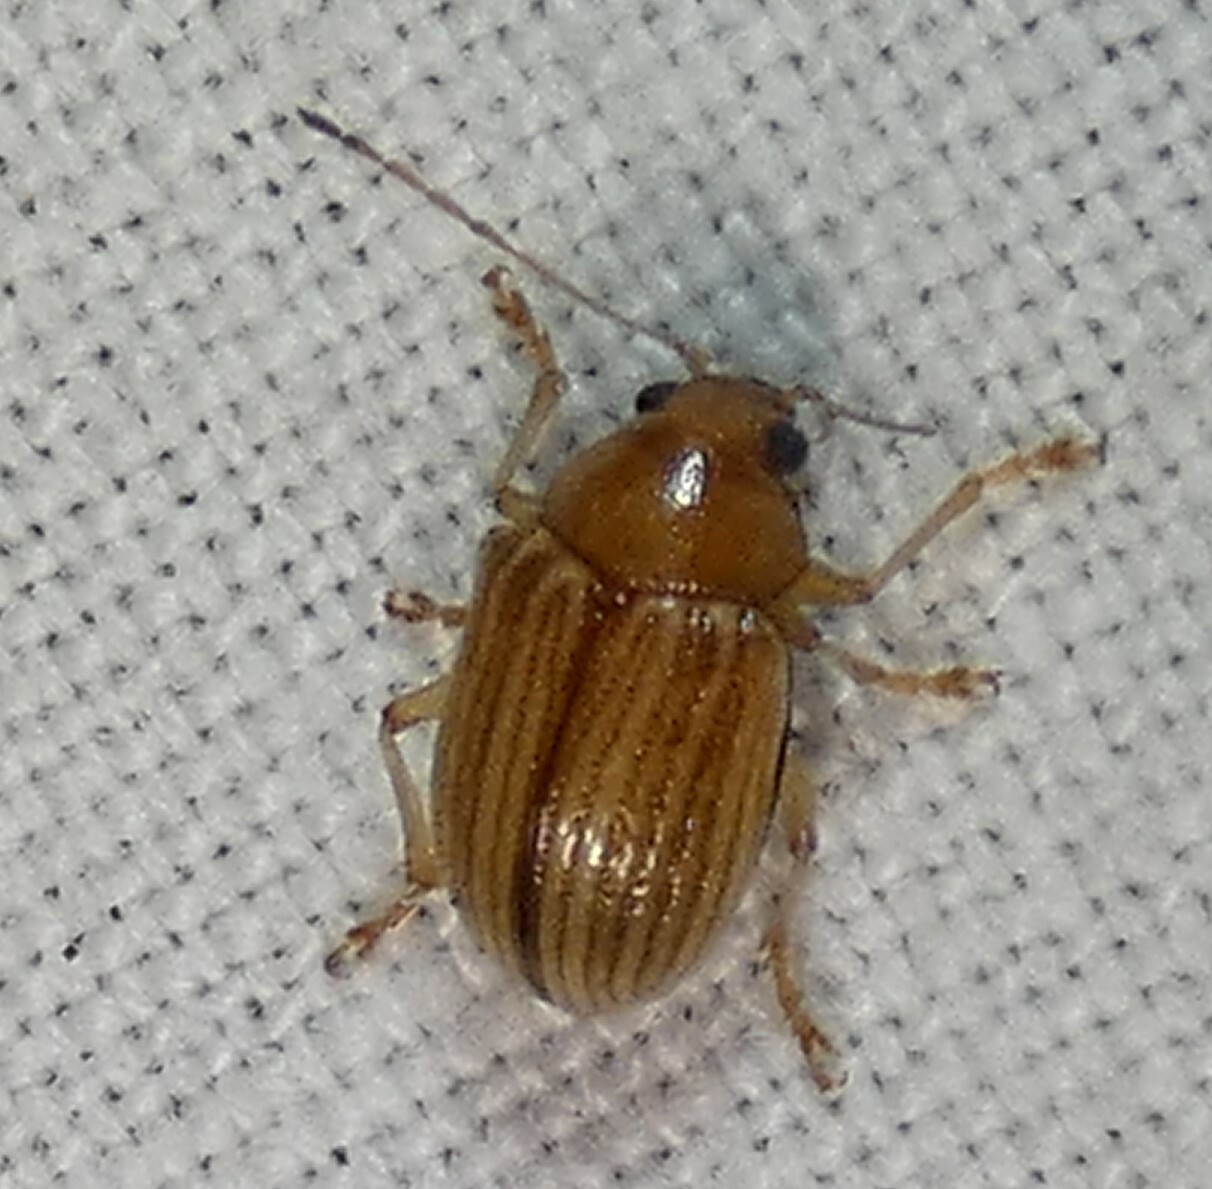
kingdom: Animalia
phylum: Arthropoda
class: Insecta
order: Coleoptera
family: Chrysomelidae
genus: Colaspis
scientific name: Colaspis brunnea
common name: Grape colaspis
